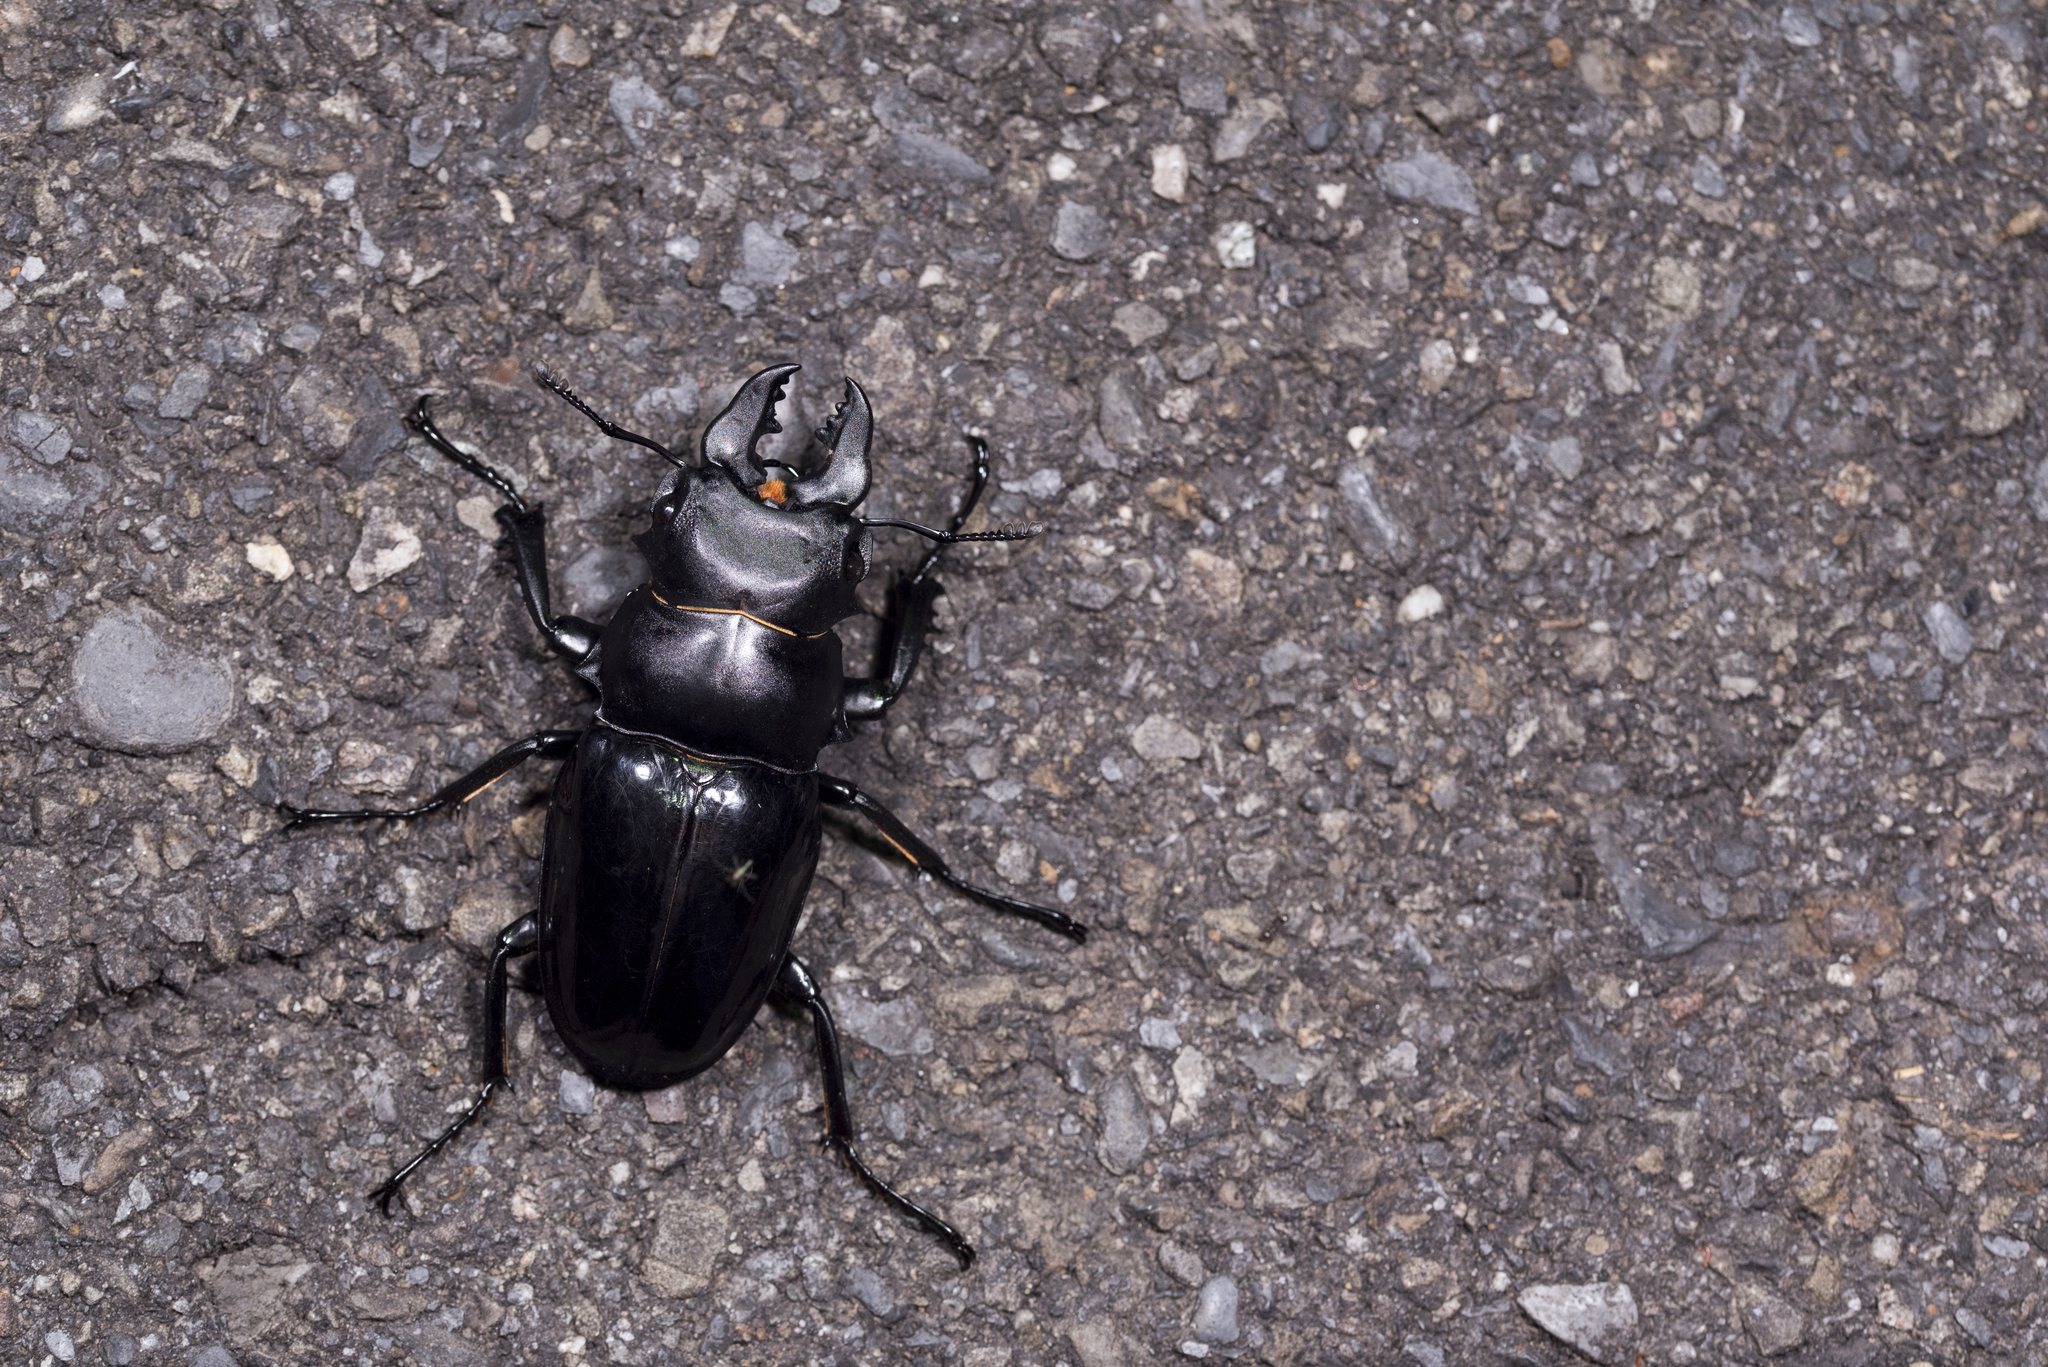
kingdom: Animalia
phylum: Arthropoda
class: Insecta
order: Coleoptera
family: Lucanidae
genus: Odontolabis
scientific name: Odontolabis siva
